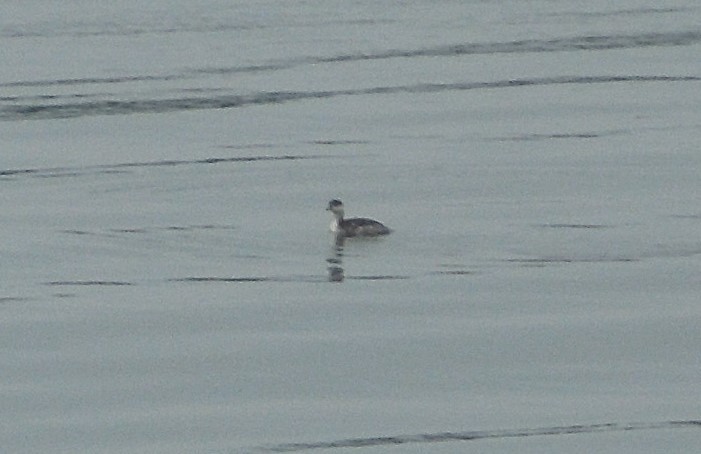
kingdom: Animalia
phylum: Chordata
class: Aves
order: Podicipediformes
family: Podicipedidae
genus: Podiceps
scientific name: Podiceps auritus
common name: Horned grebe
